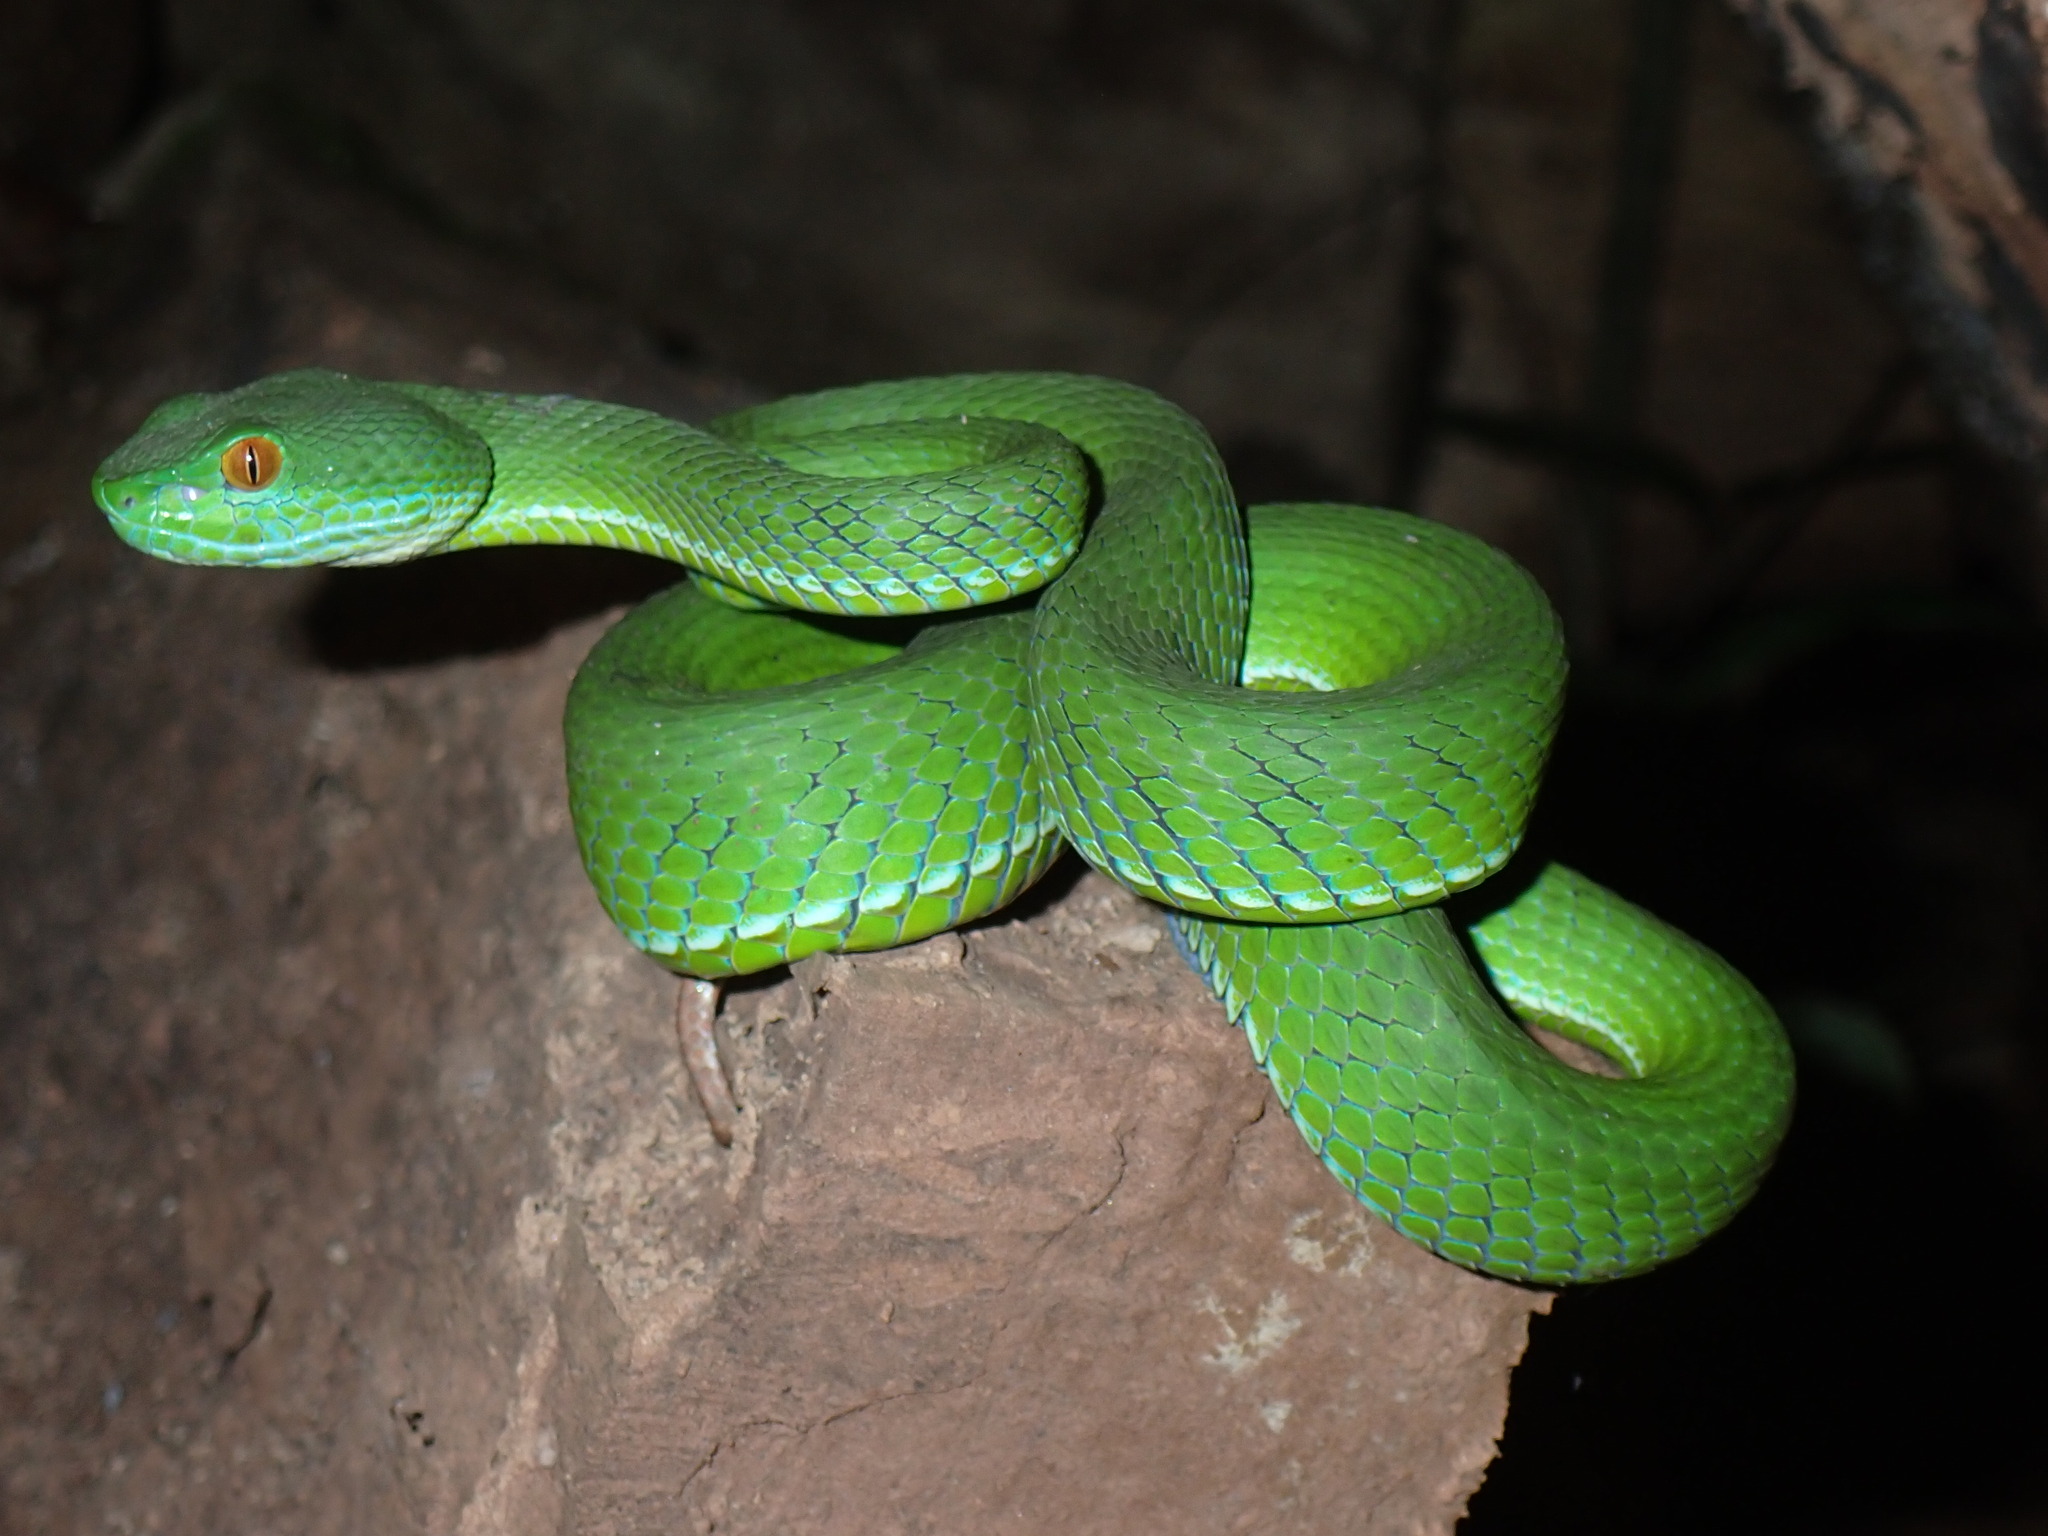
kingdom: Animalia
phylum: Chordata
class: Squamata
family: Viperidae
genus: Craspedocephalus
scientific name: Craspedocephalus rubeus
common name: Ruby-eyed green pitviper
